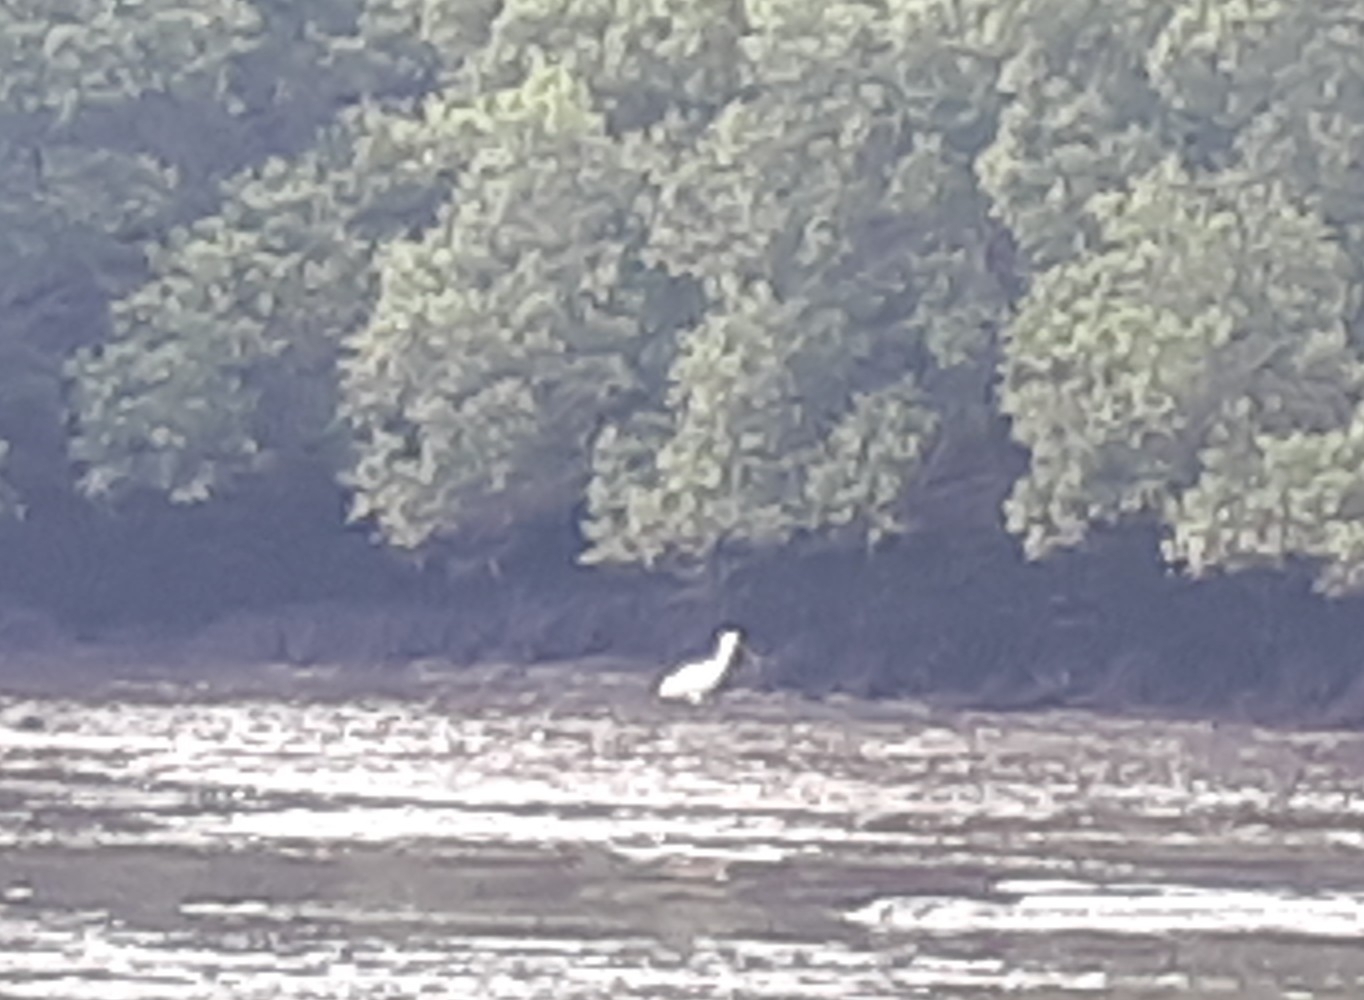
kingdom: Animalia
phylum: Chordata
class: Aves
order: Pelecaniformes
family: Threskiornithidae
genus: Platalea
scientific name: Platalea regia
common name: Royal spoonbill
